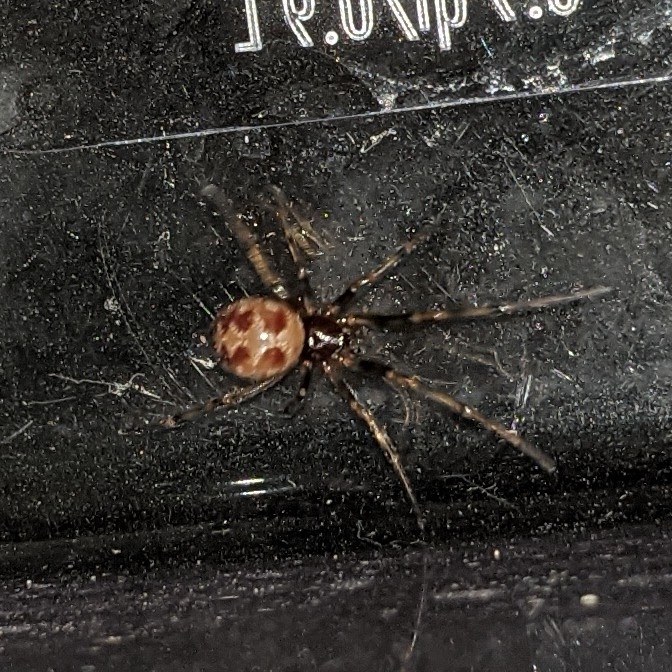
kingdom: Animalia
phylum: Arthropoda
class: Arachnida
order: Araneae
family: Theridiidae
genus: Steatoda
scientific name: Steatoda triangulosa
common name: Triangulate bud spider
